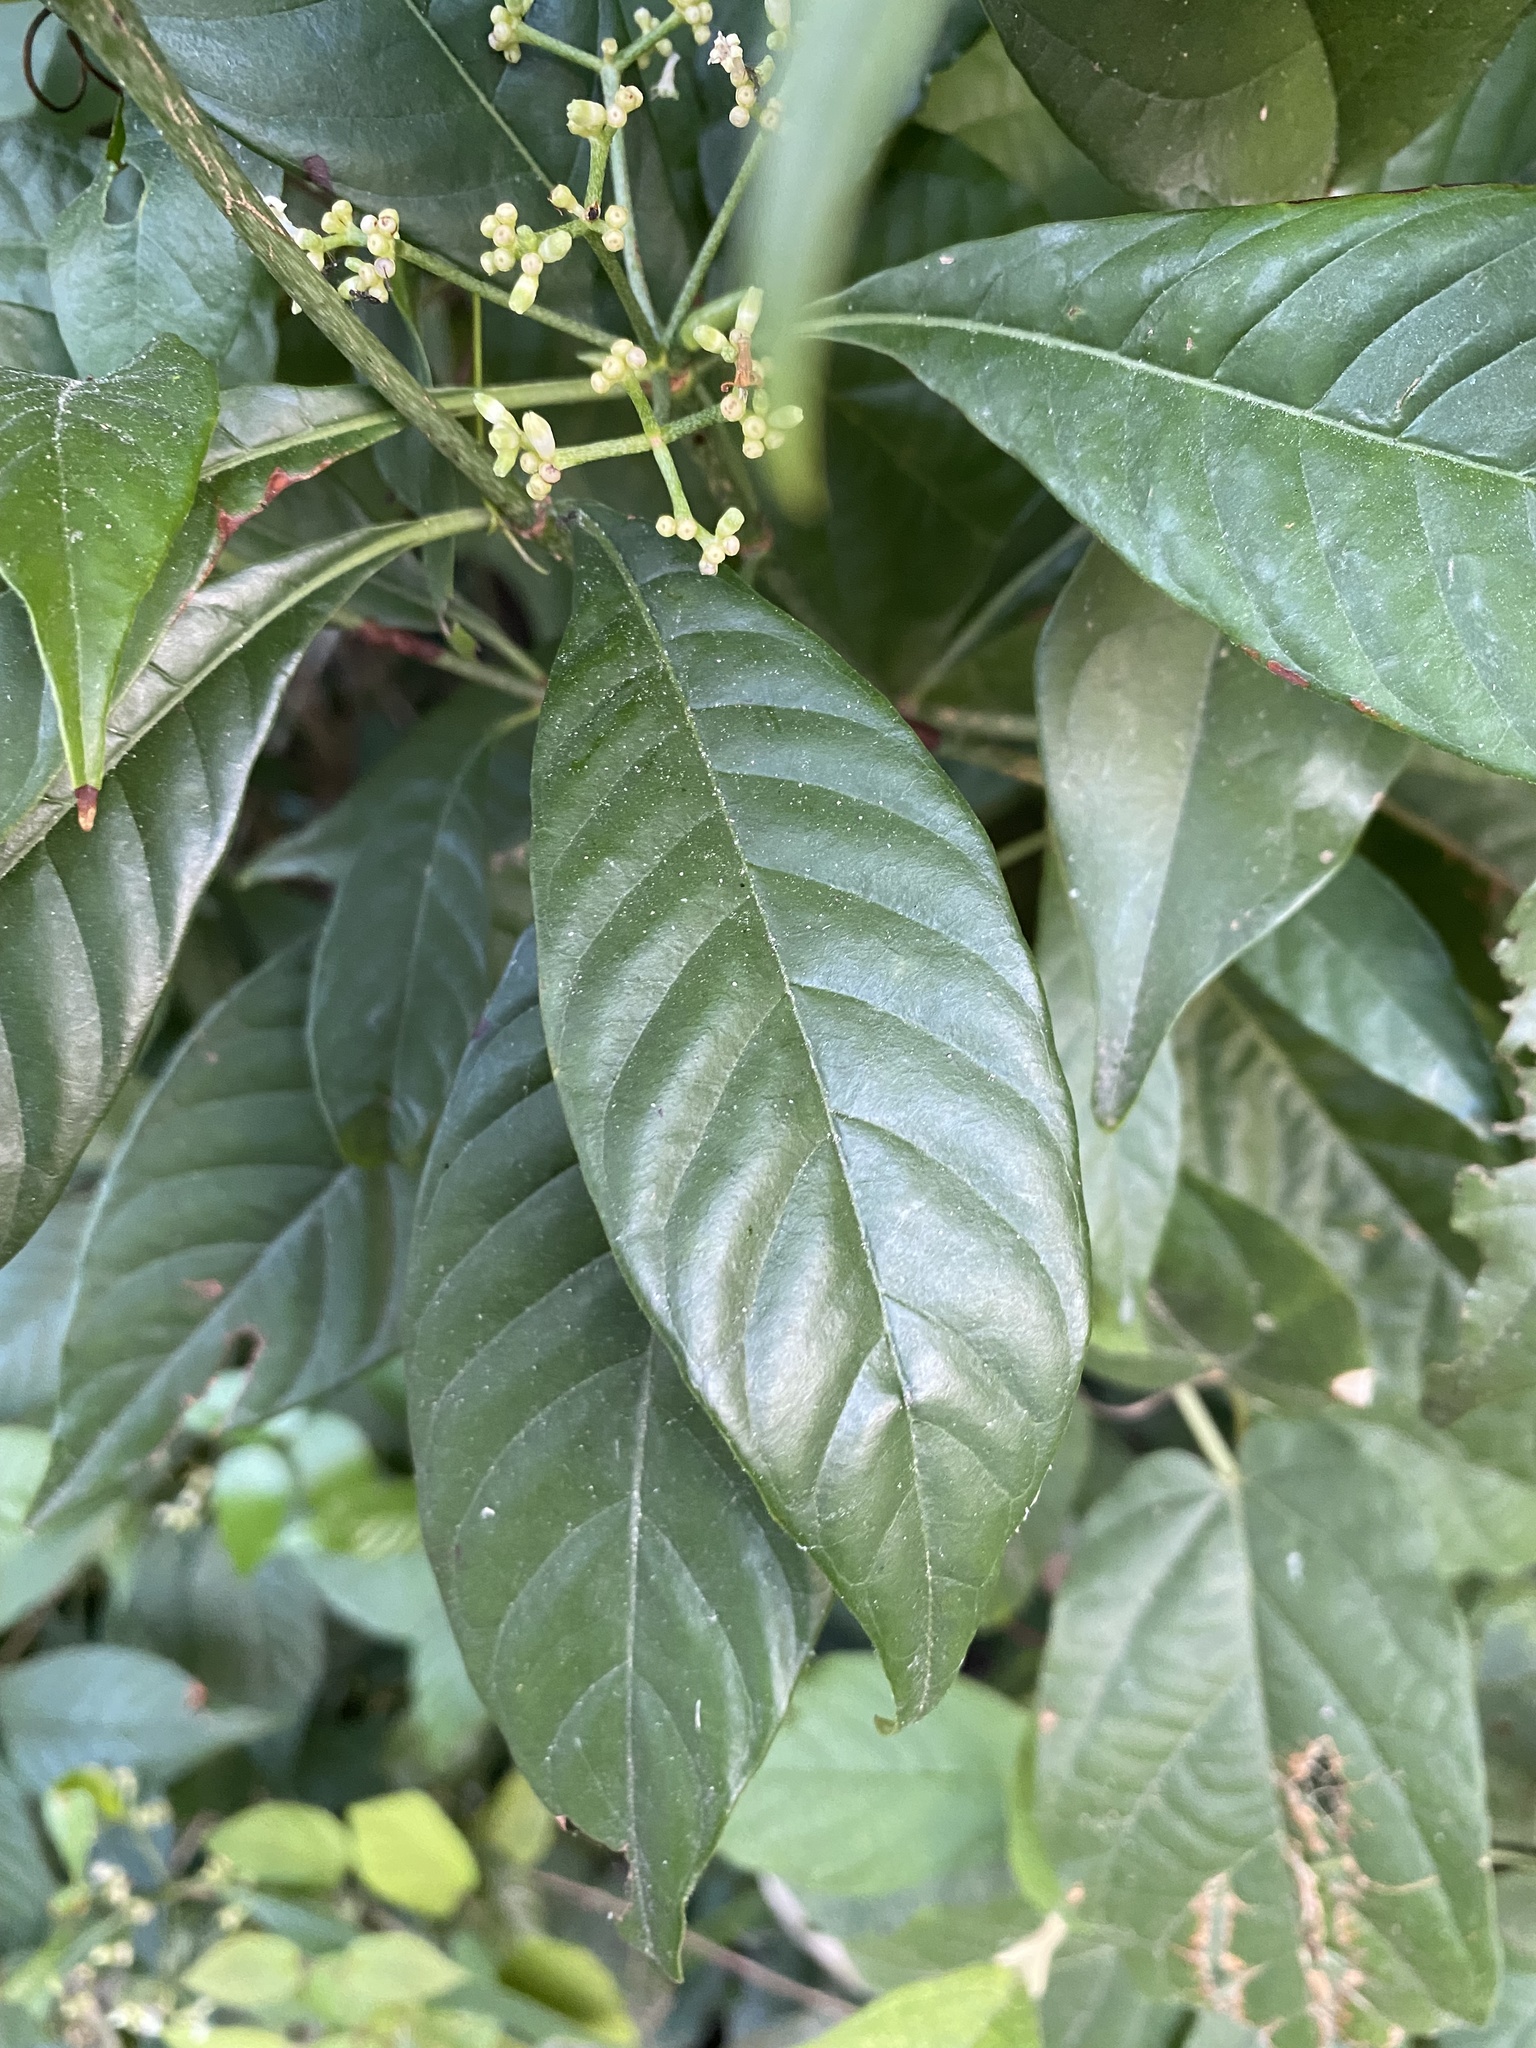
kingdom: Plantae
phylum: Tracheophyta
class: Magnoliopsida
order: Gentianales
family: Rubiaceae
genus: Psychotria
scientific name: Psychotria nervosa
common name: Bastard cankerberry
